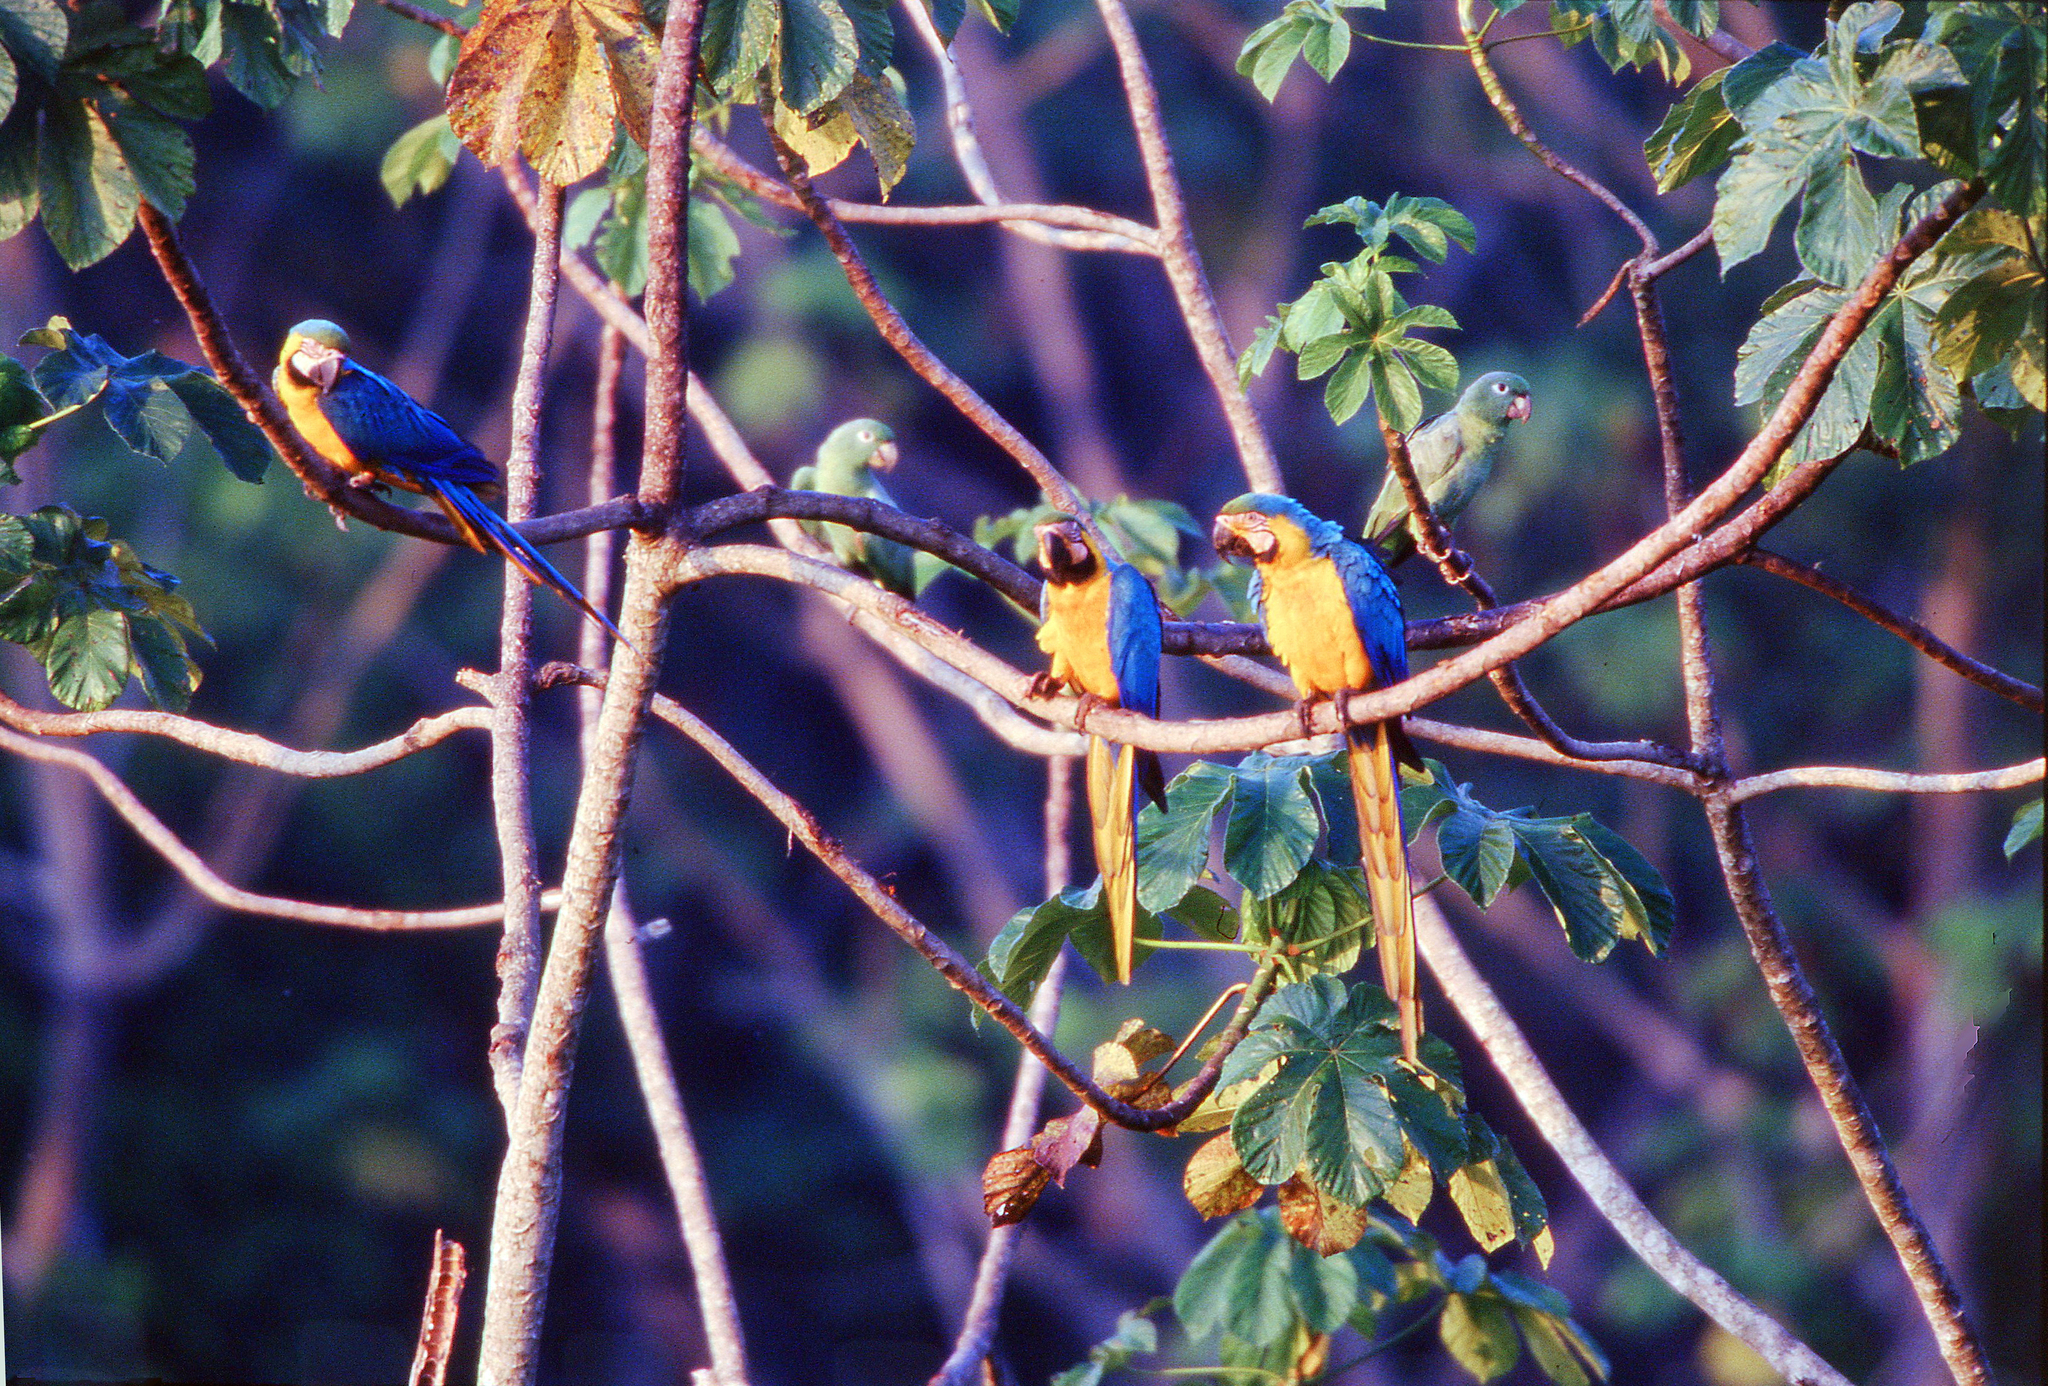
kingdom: Animalia
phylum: Chordata
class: Aves
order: Psittaciformes
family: Psittacidae
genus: Ara
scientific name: Ara ararauna
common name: Blue-and-yellow macaw
